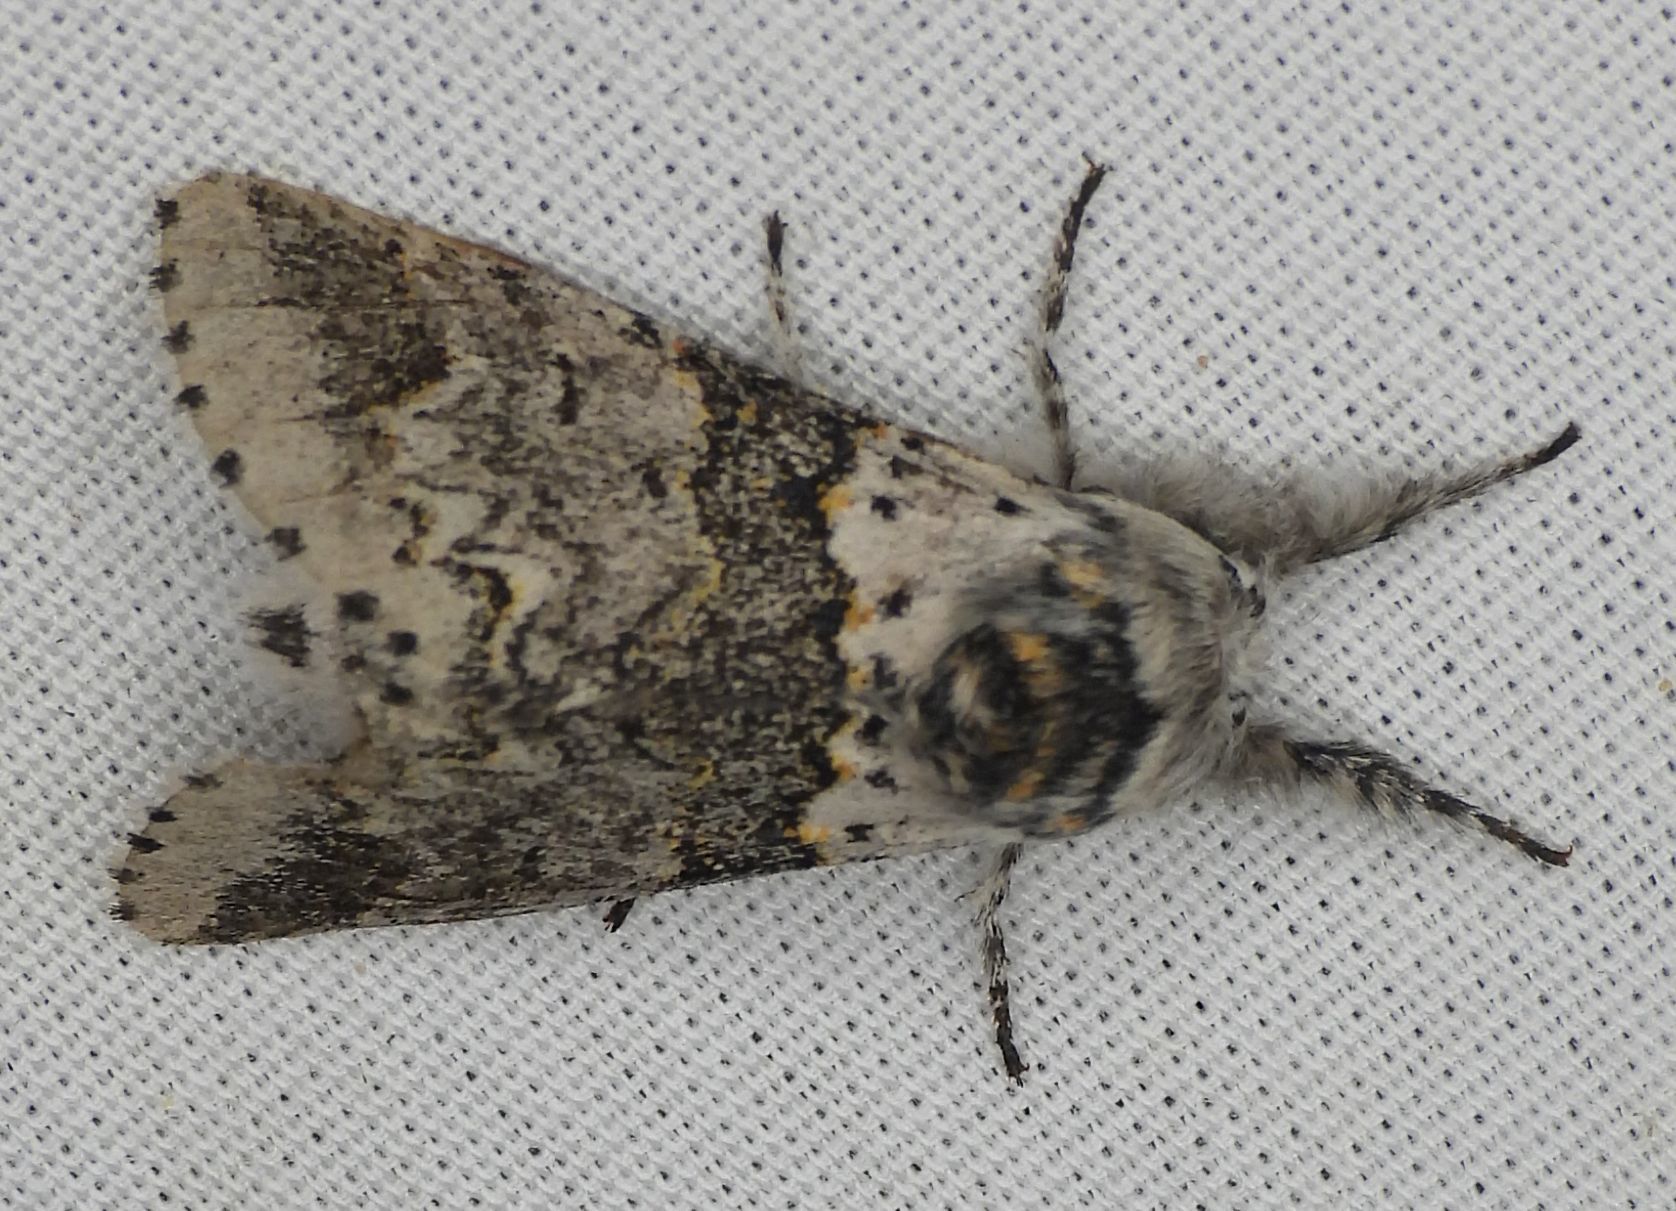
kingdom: Animalia
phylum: Arthropoda
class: Insecta
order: Lepidoptera
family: Notodontidae
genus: Furcula
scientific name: Furcula occidentalis
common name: Western furcula moth
